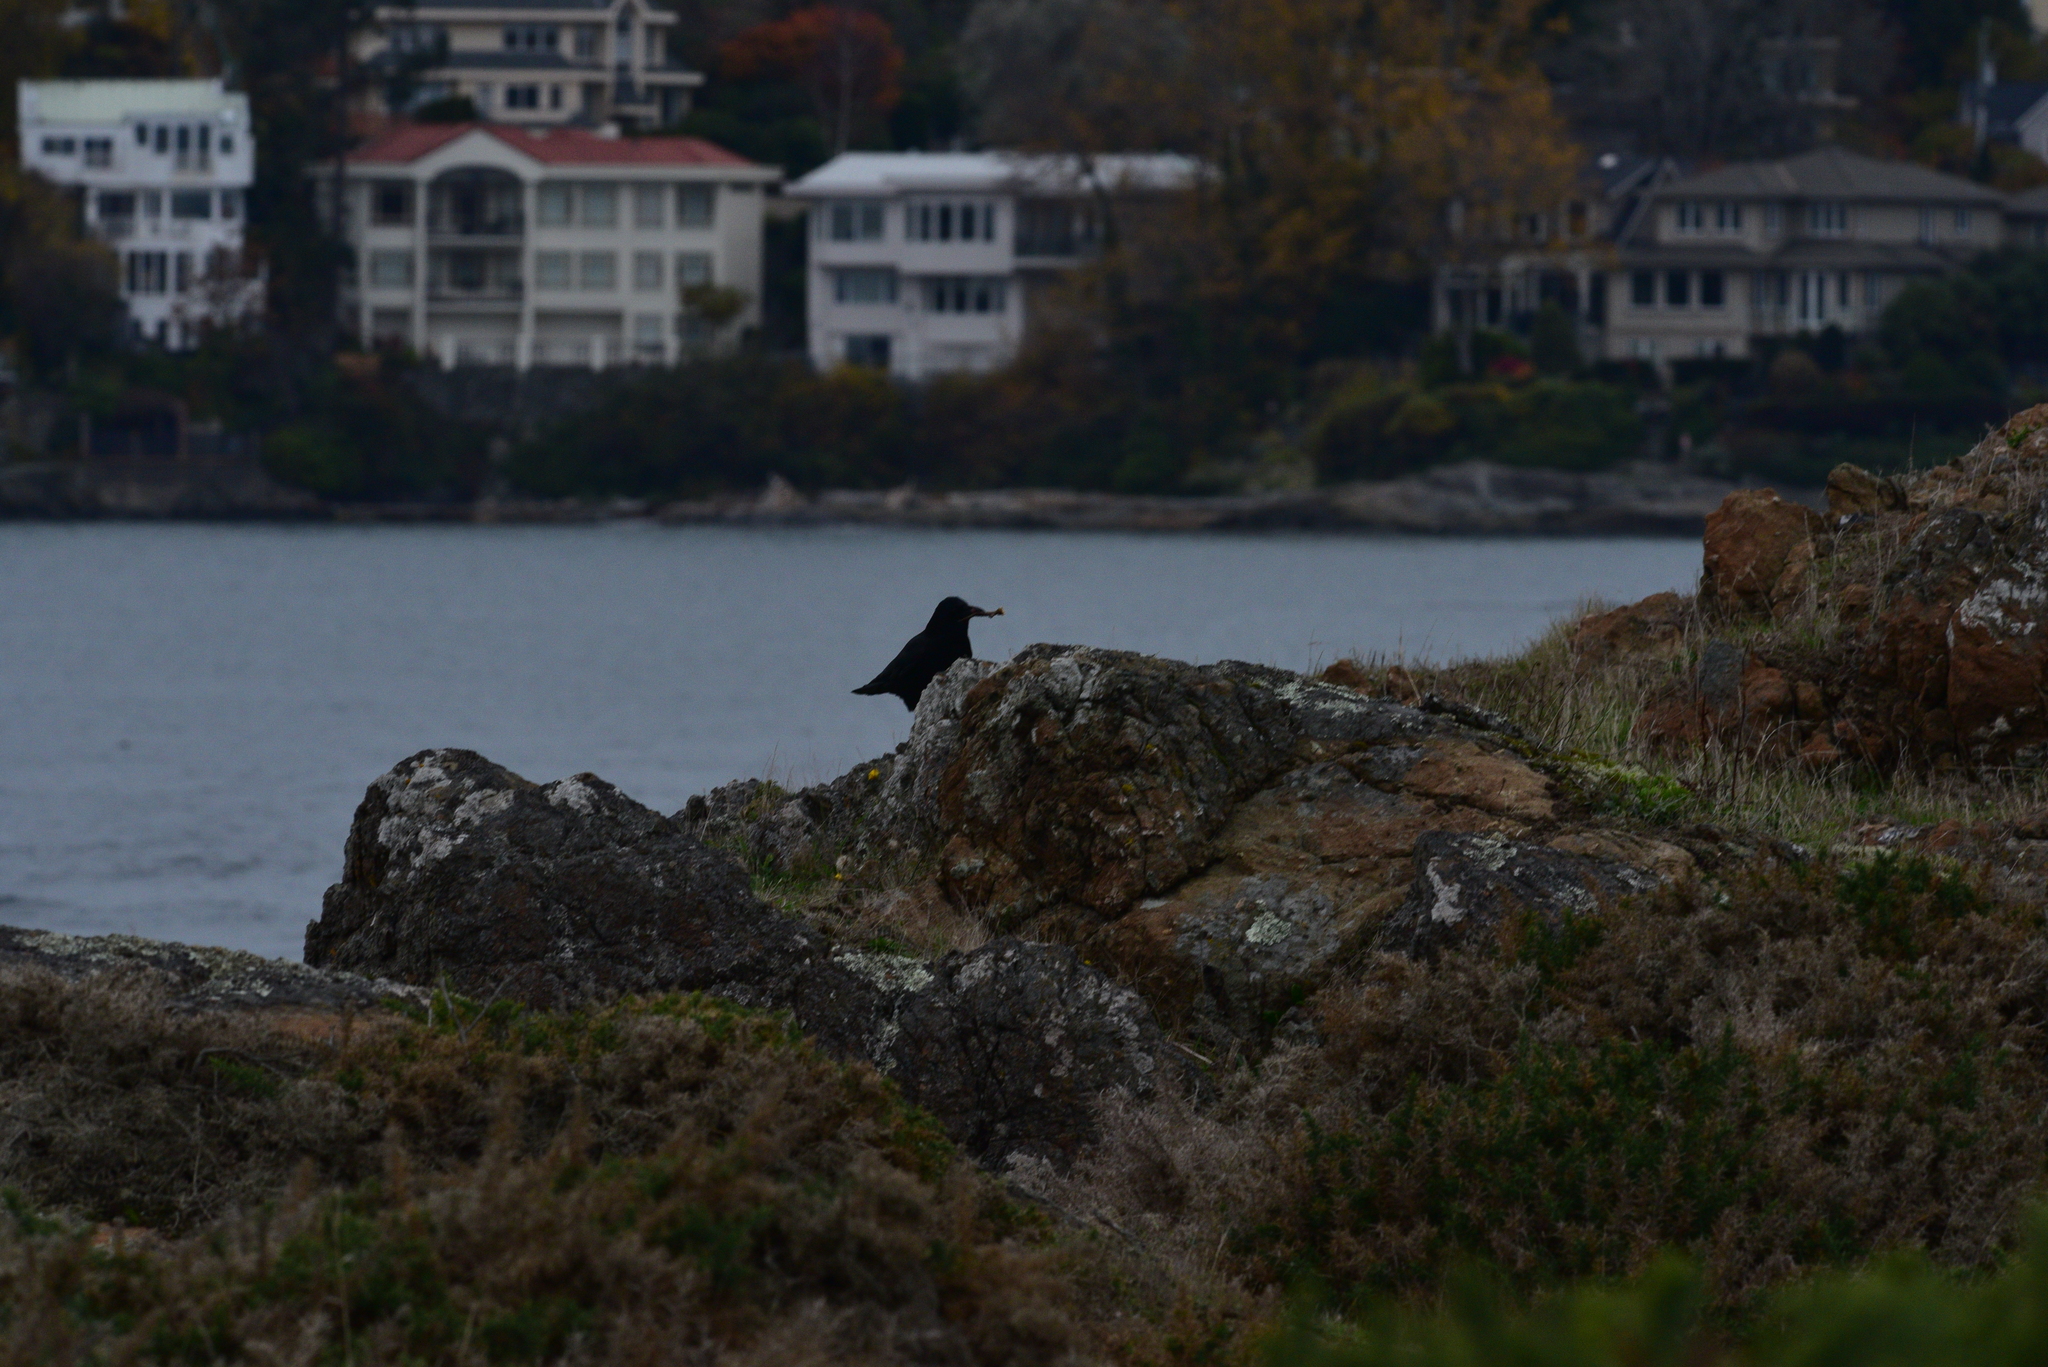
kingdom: Animalia
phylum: Chordata
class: Aves
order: Passeriformes
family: Corvidae
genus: Corvus
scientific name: Corvus brachyrhynchos
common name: American crow
